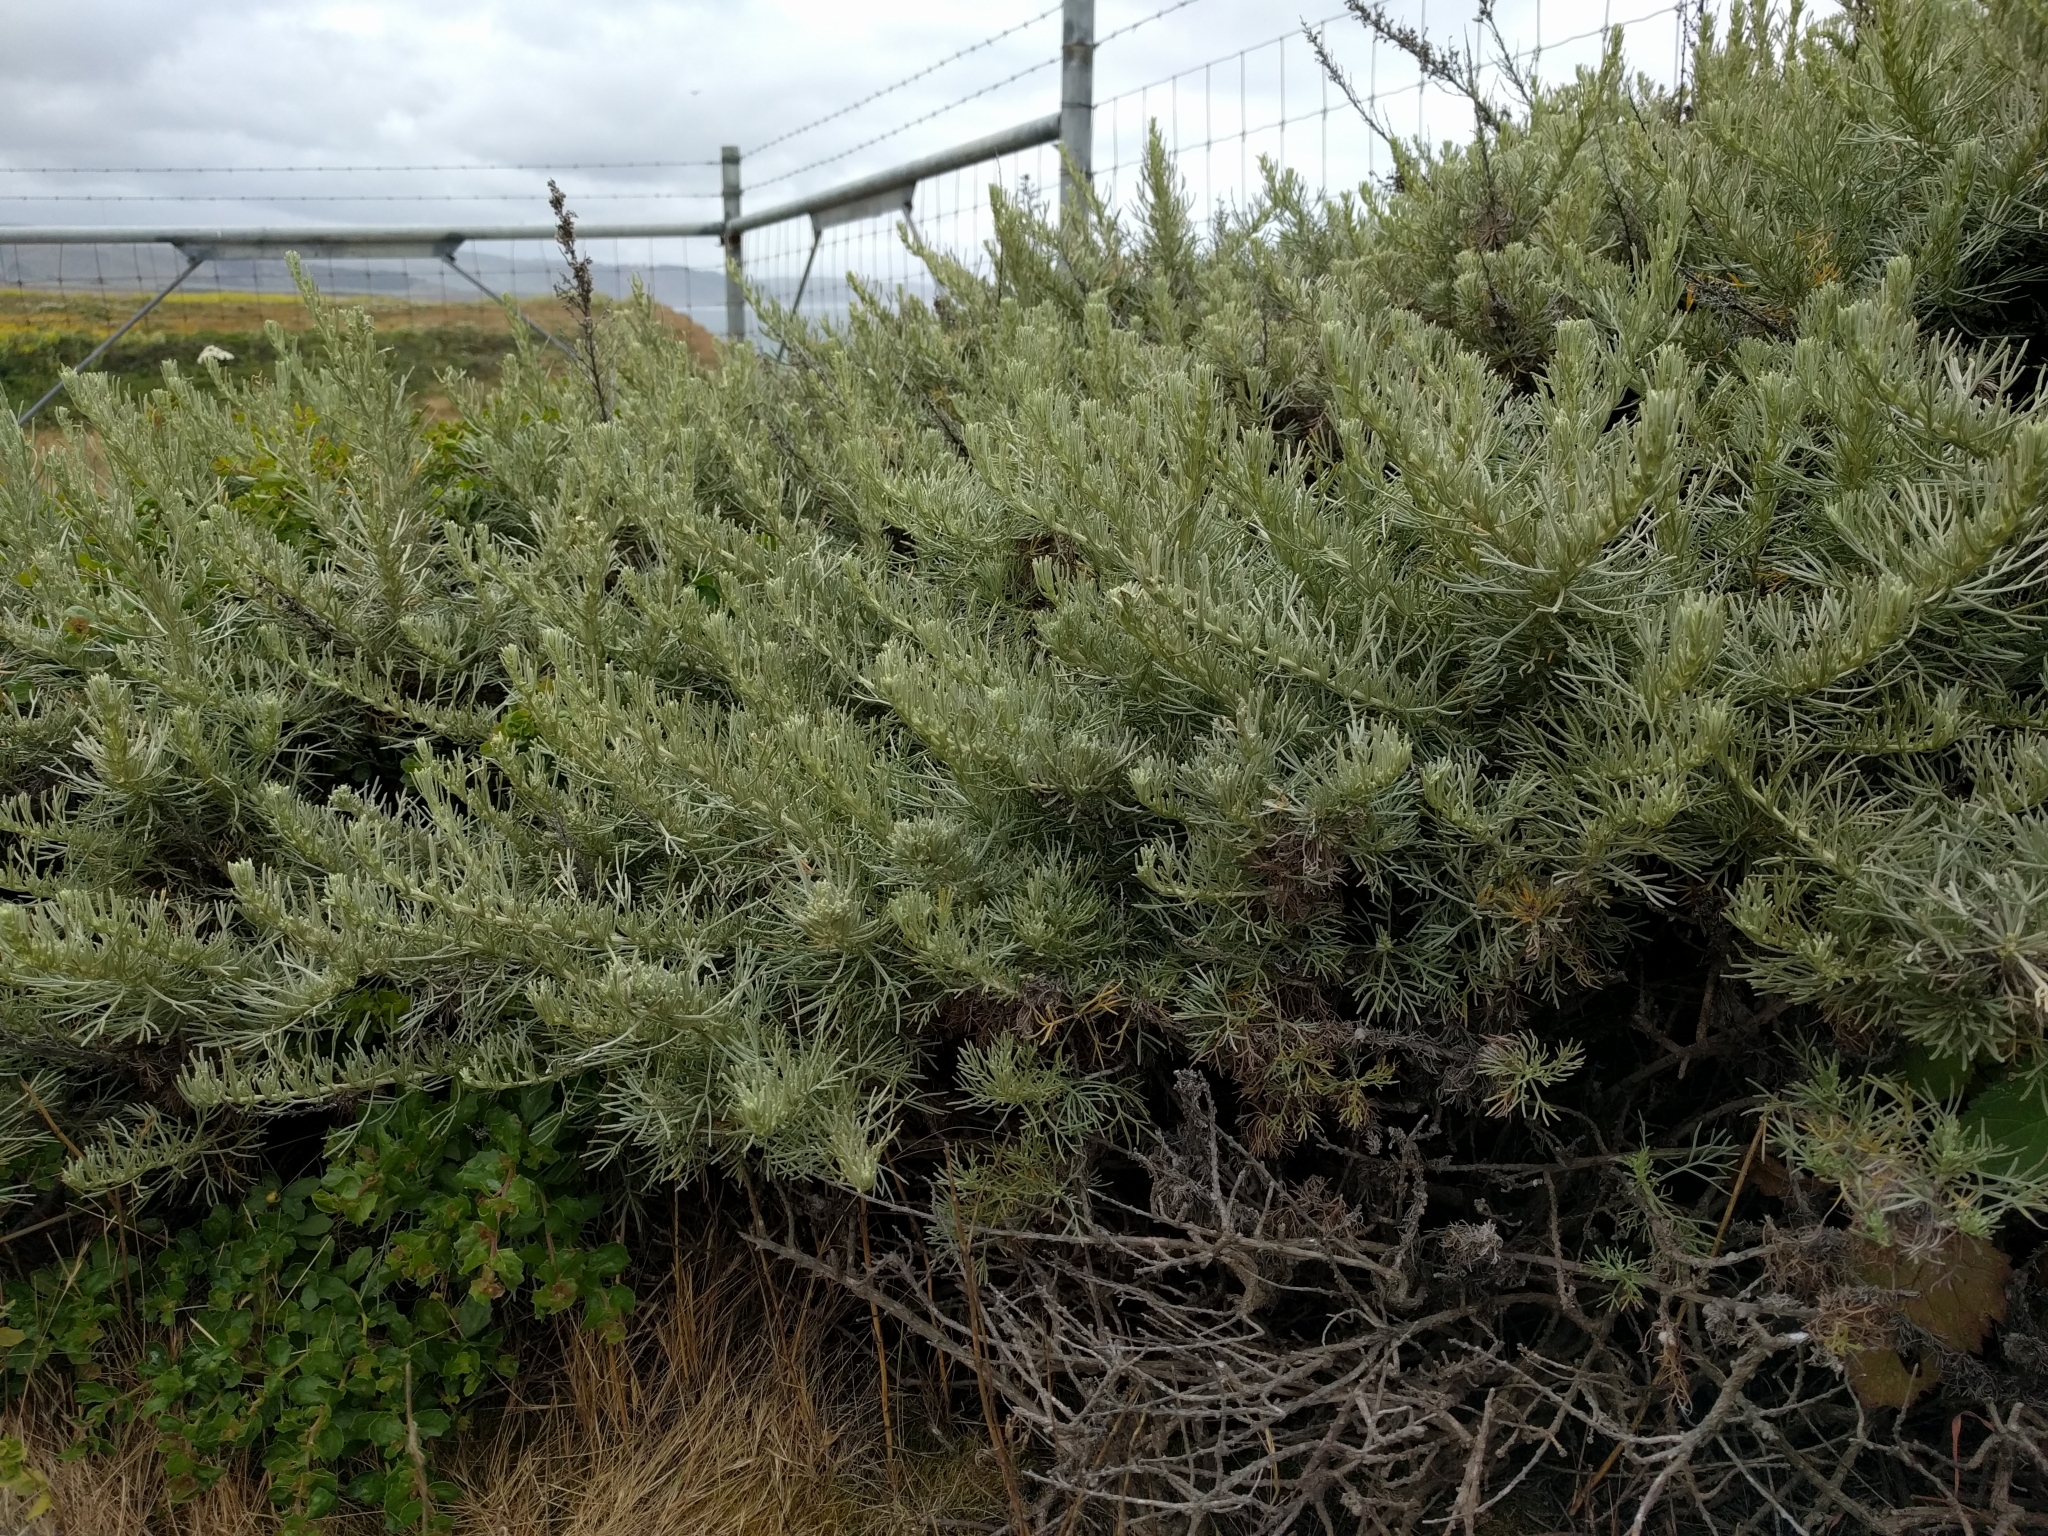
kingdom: Plantae
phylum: Tracheophyta
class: Magnoliopsida
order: Asterales
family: Asteraceae
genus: Artemisia
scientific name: Artemisia californica
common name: California sagebrush
